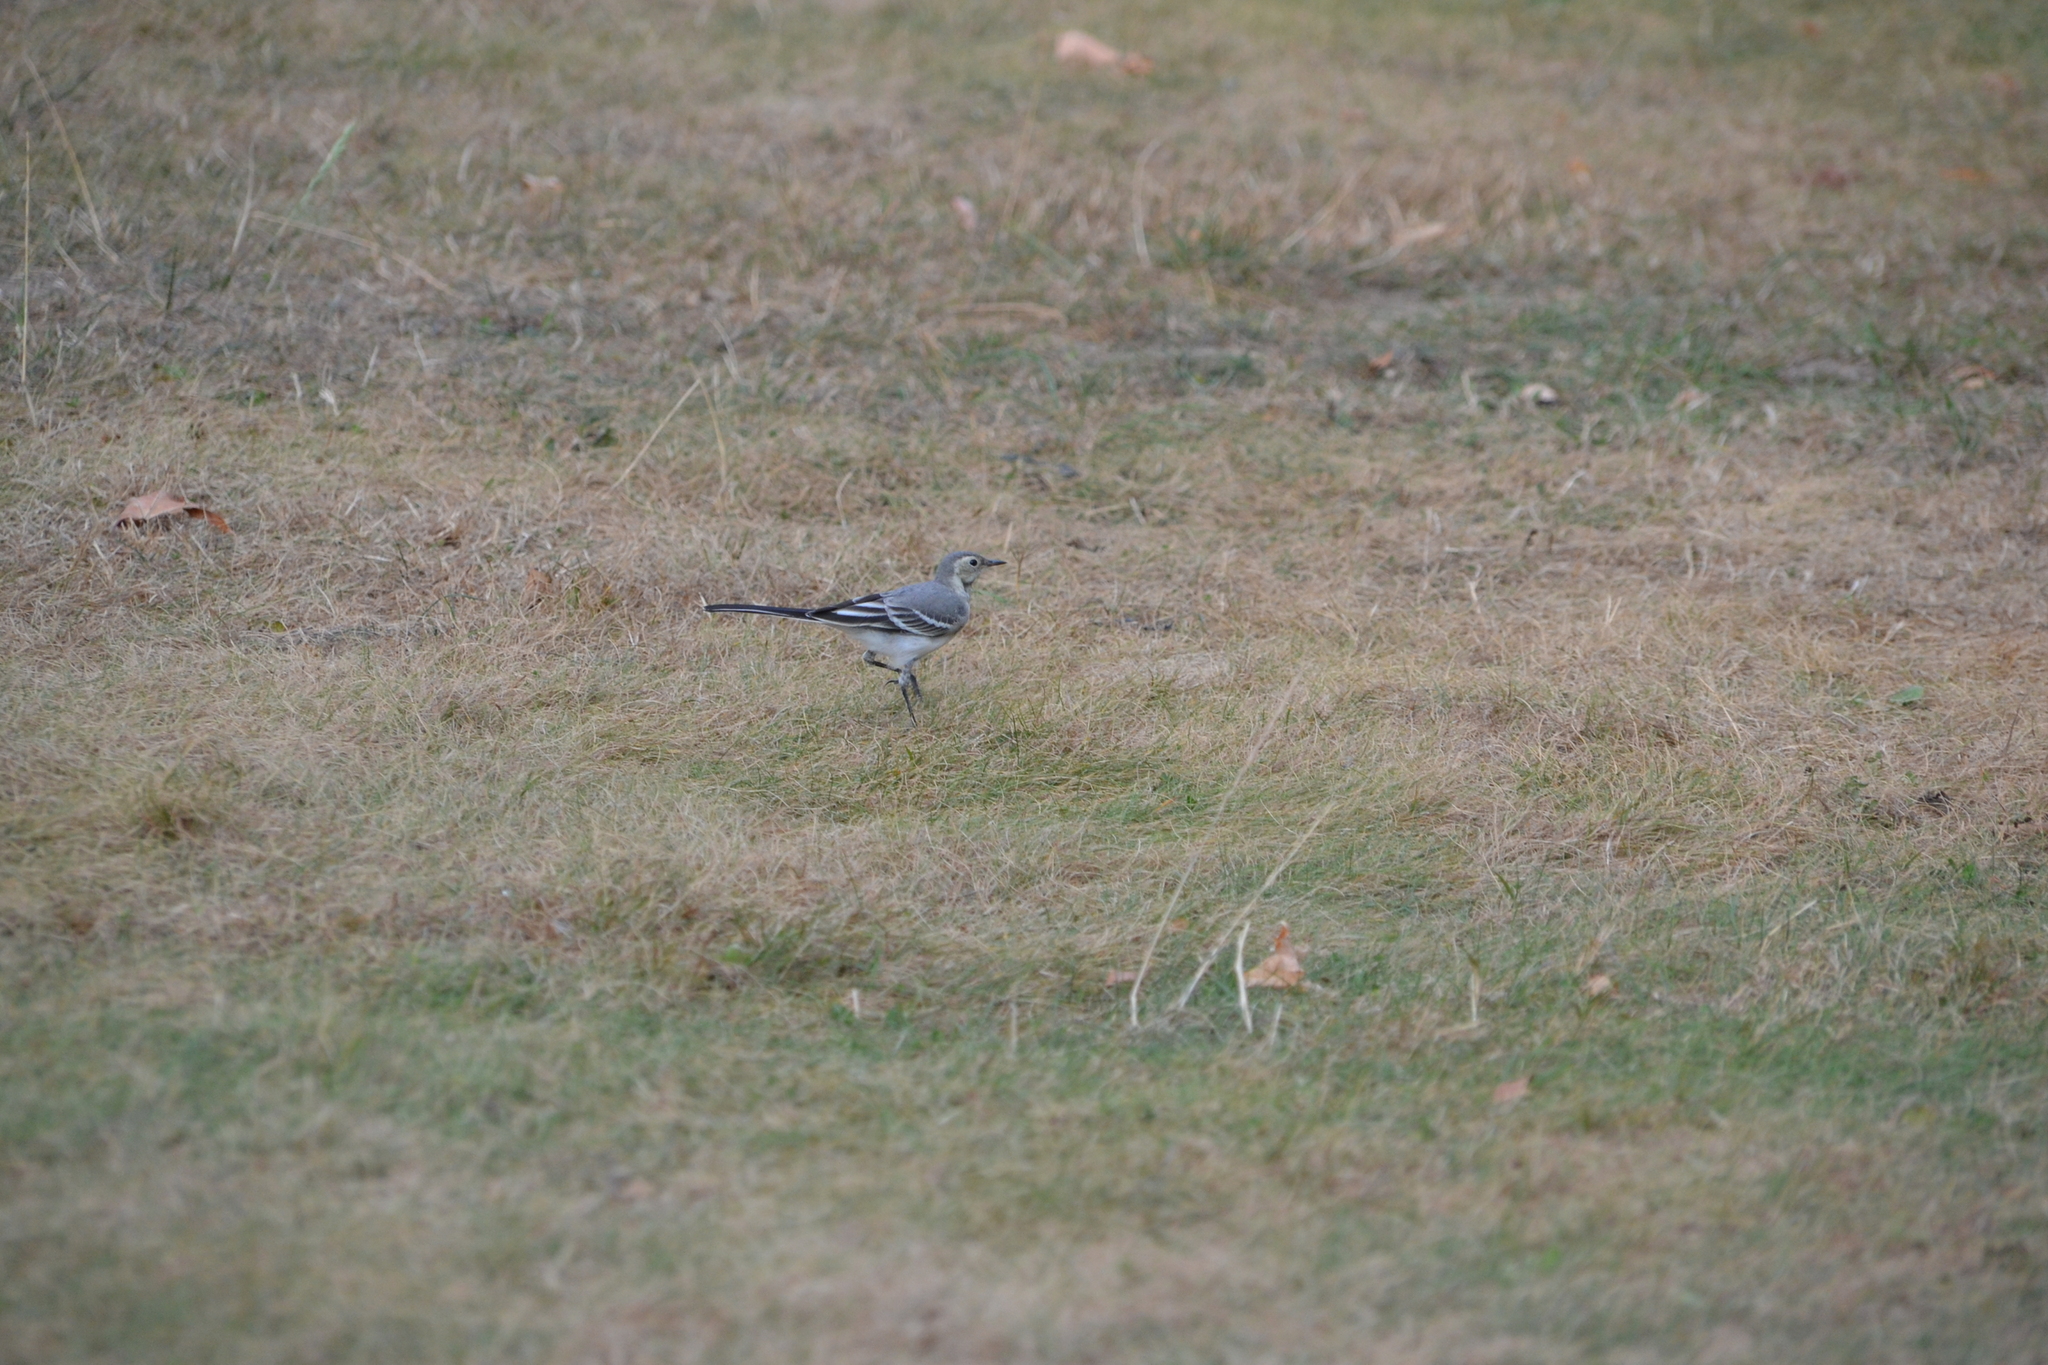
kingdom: Animalia
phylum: Chordata
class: Aves
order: Passeriformes
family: Motacillidae
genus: Motacilla
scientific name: Motacilla alba
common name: White wagtail
